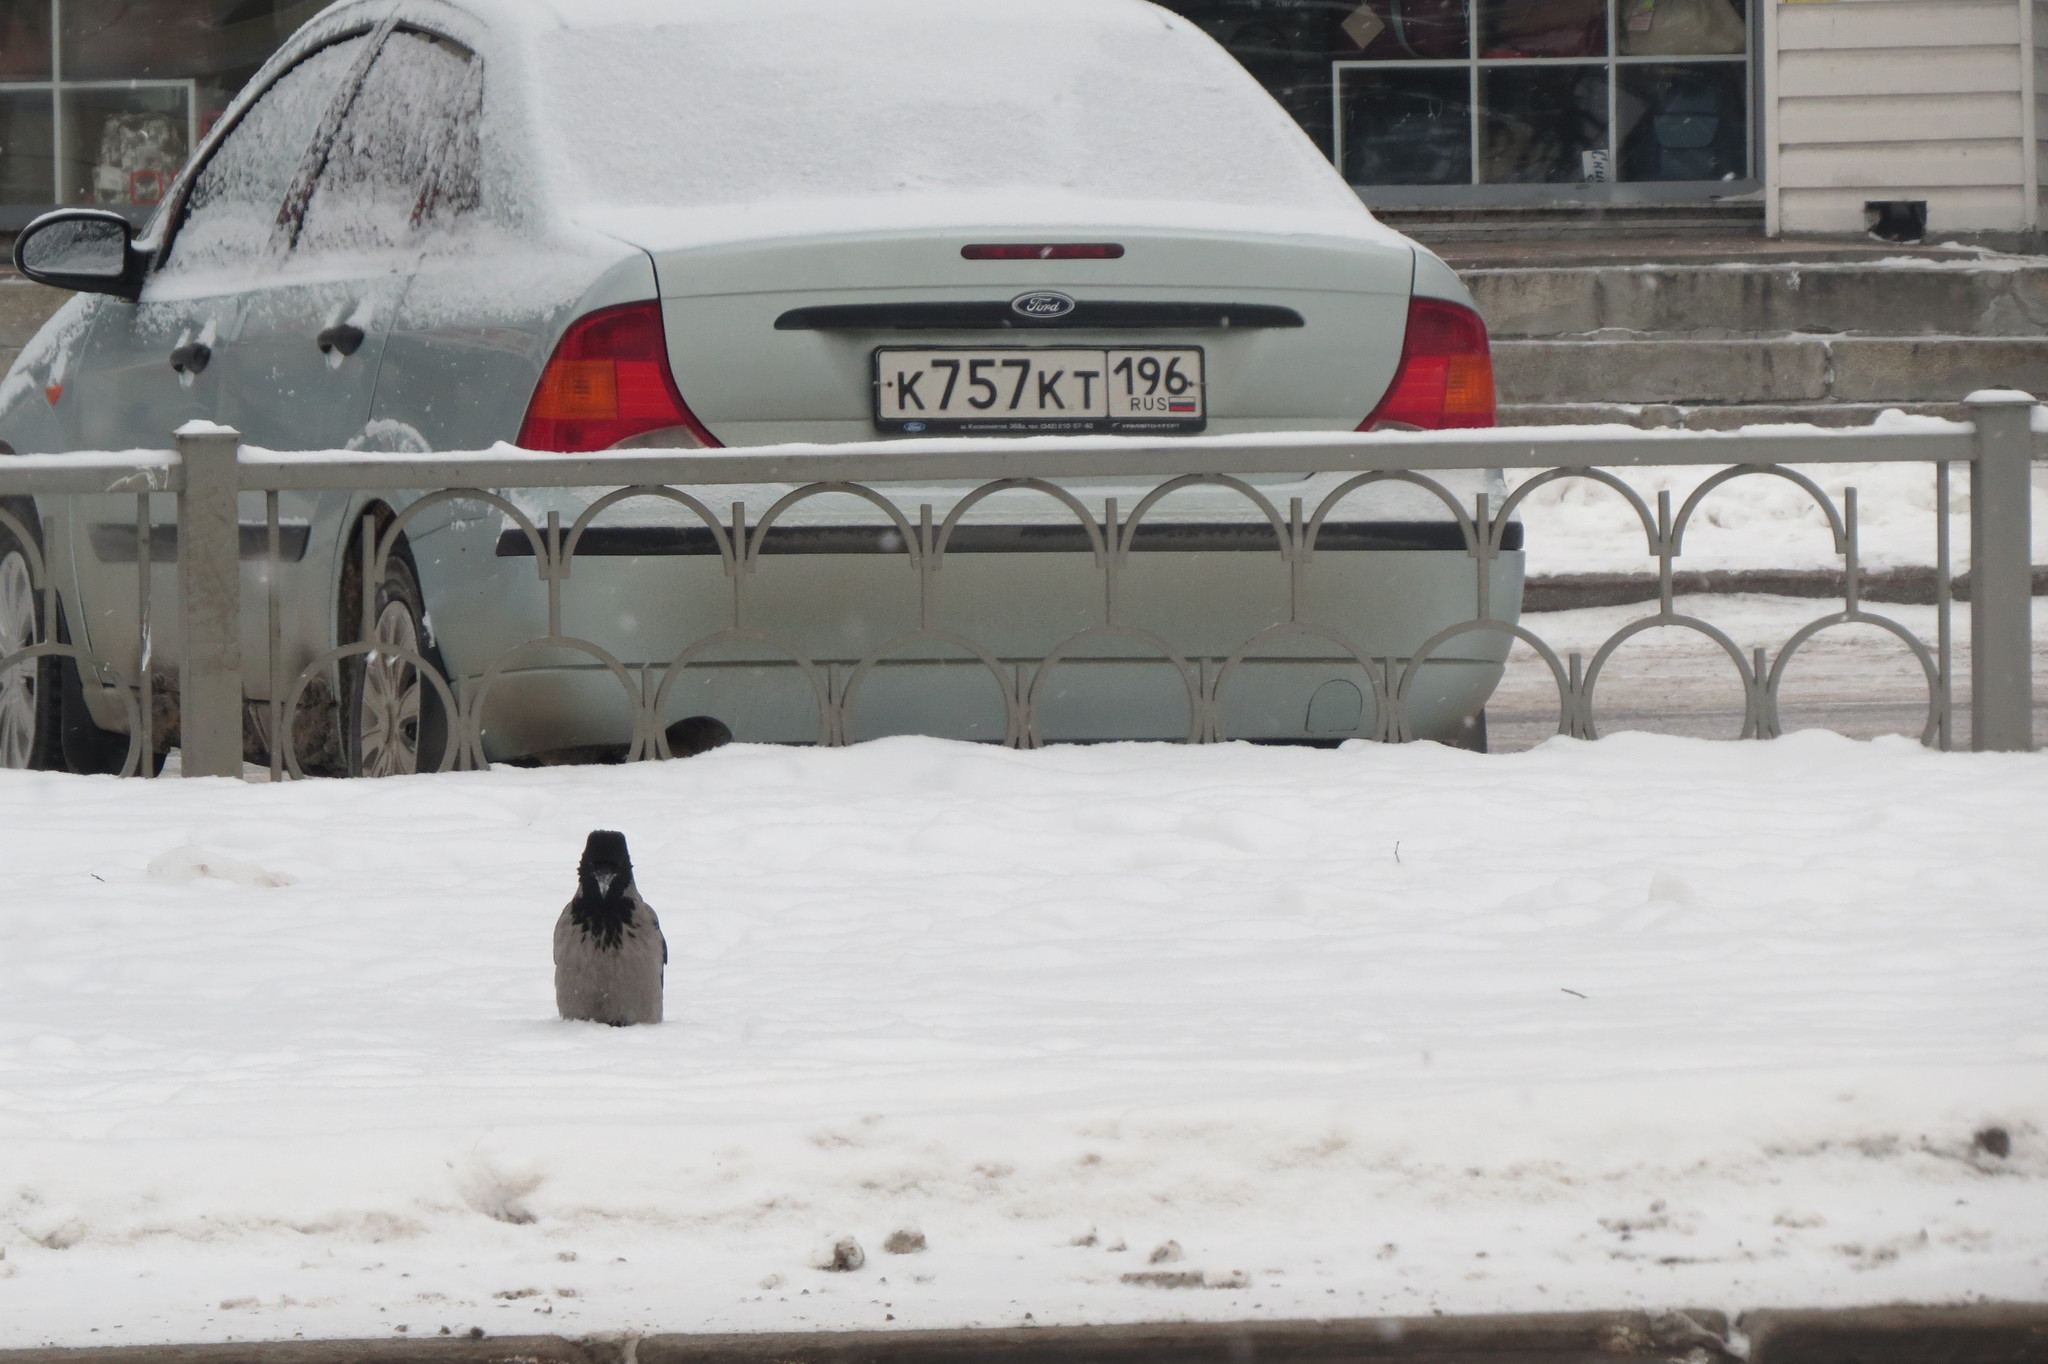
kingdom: Animalia
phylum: Chordata
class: Aves
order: Passeriformes
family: Corvidae
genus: Corvus
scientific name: Corvus cornix
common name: Hooded crow
